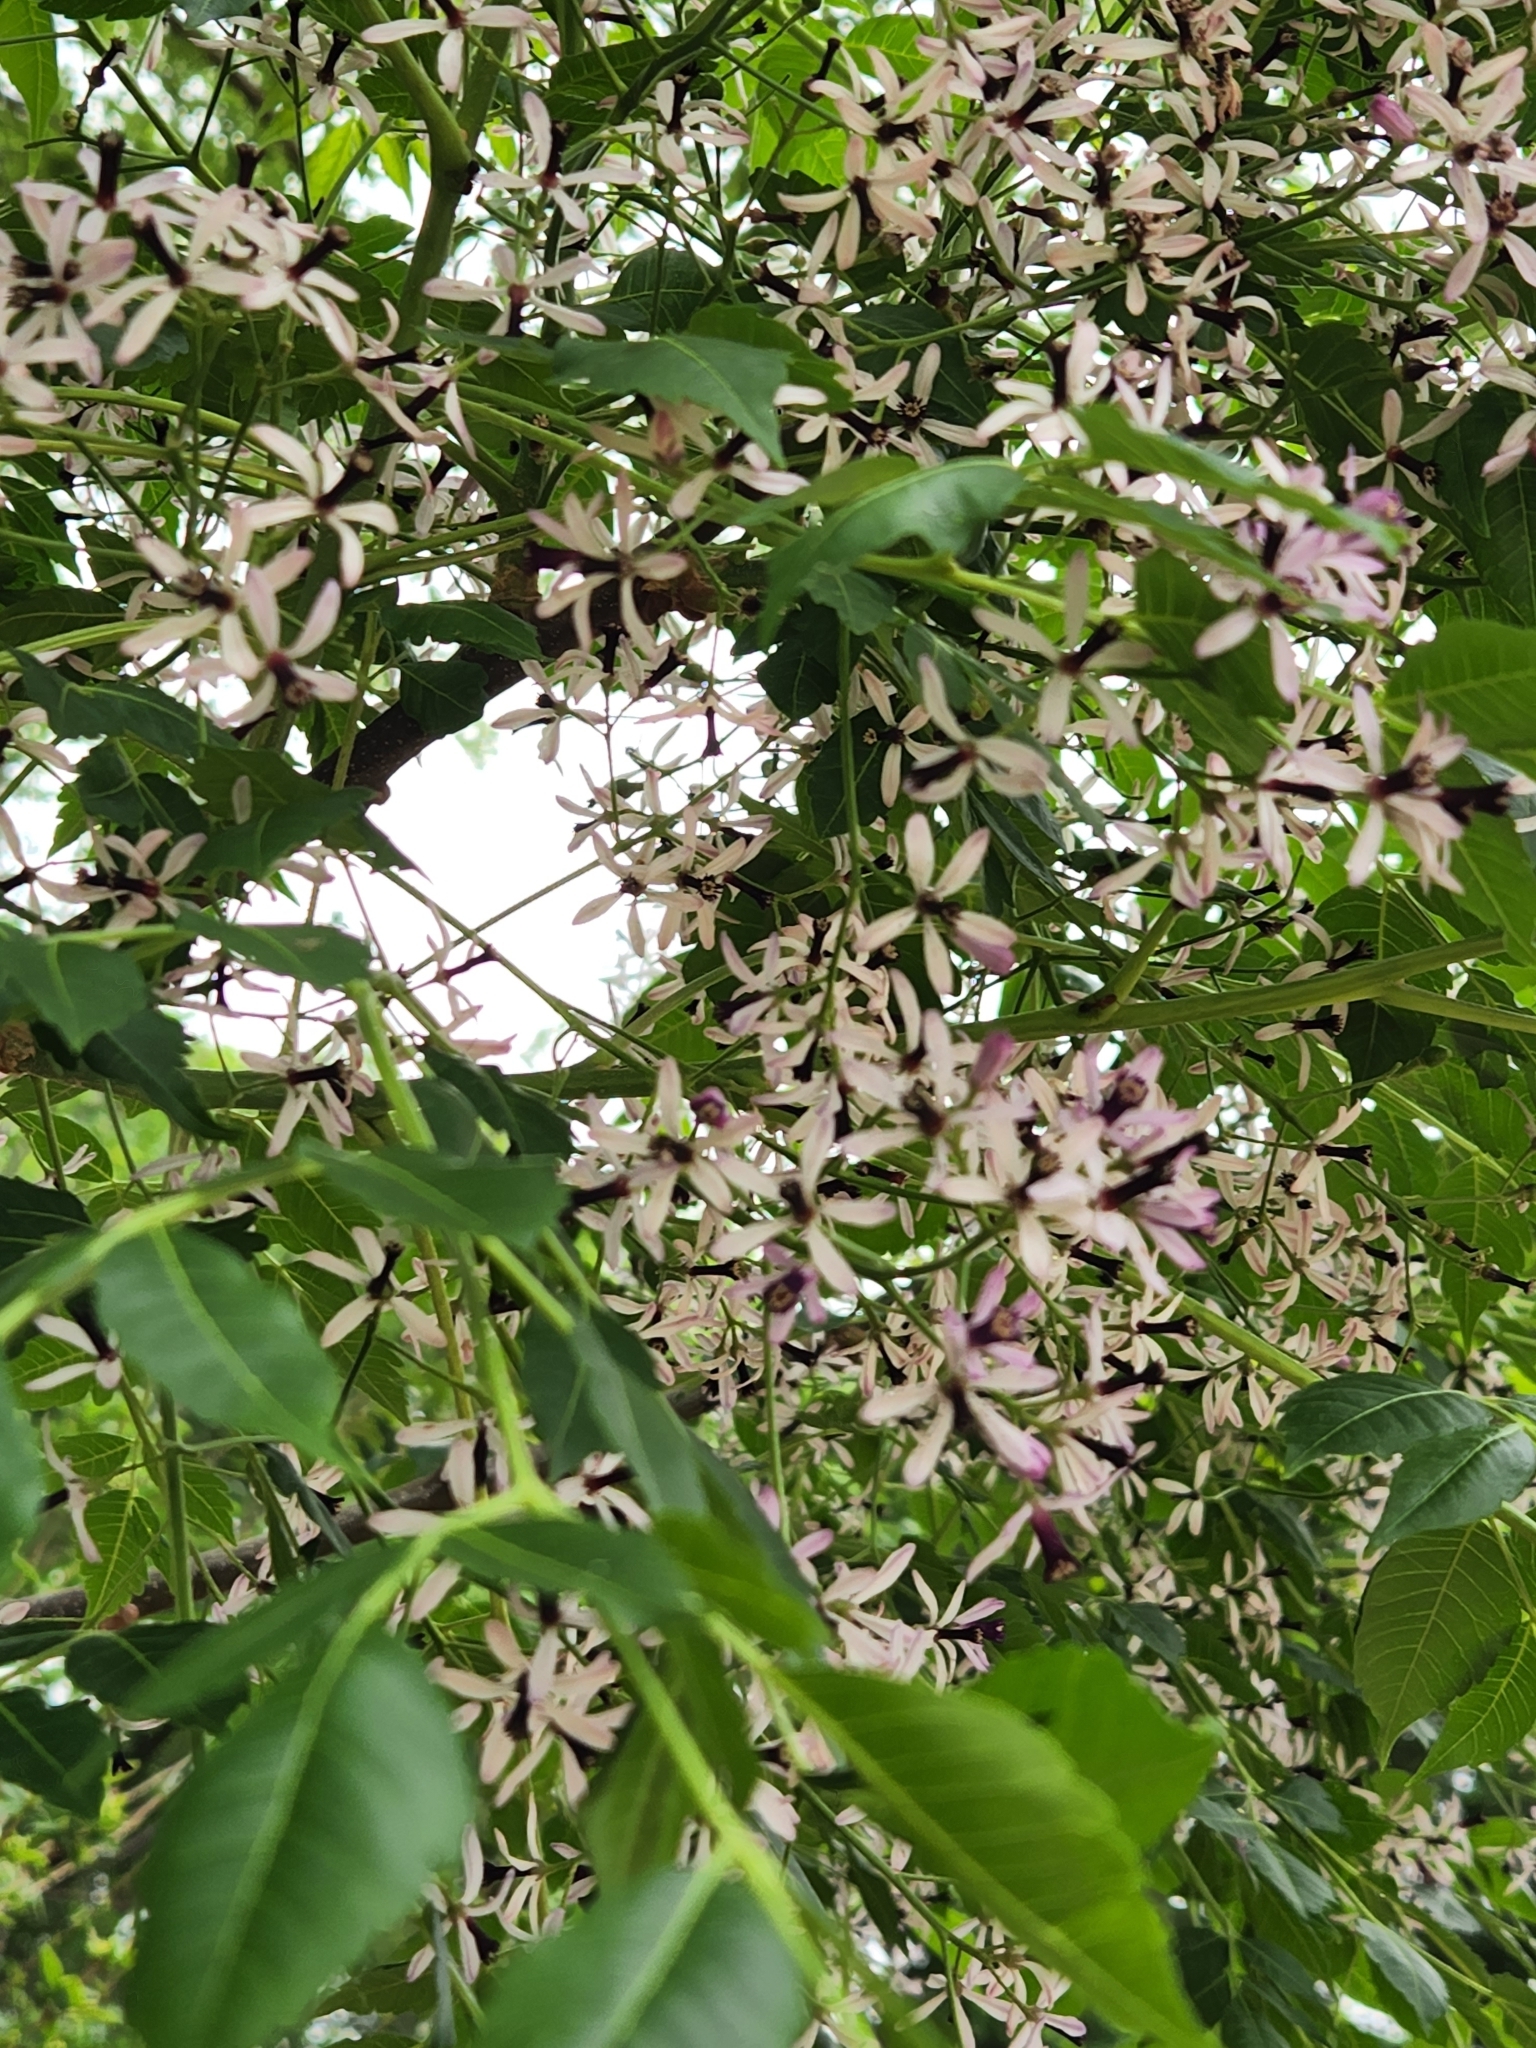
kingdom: Plantae
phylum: Tracheophyta
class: Magnoliopsida
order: Sapindales
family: Meliaceae
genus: Melia
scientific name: Melia azedarach
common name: Chinaberrytree
